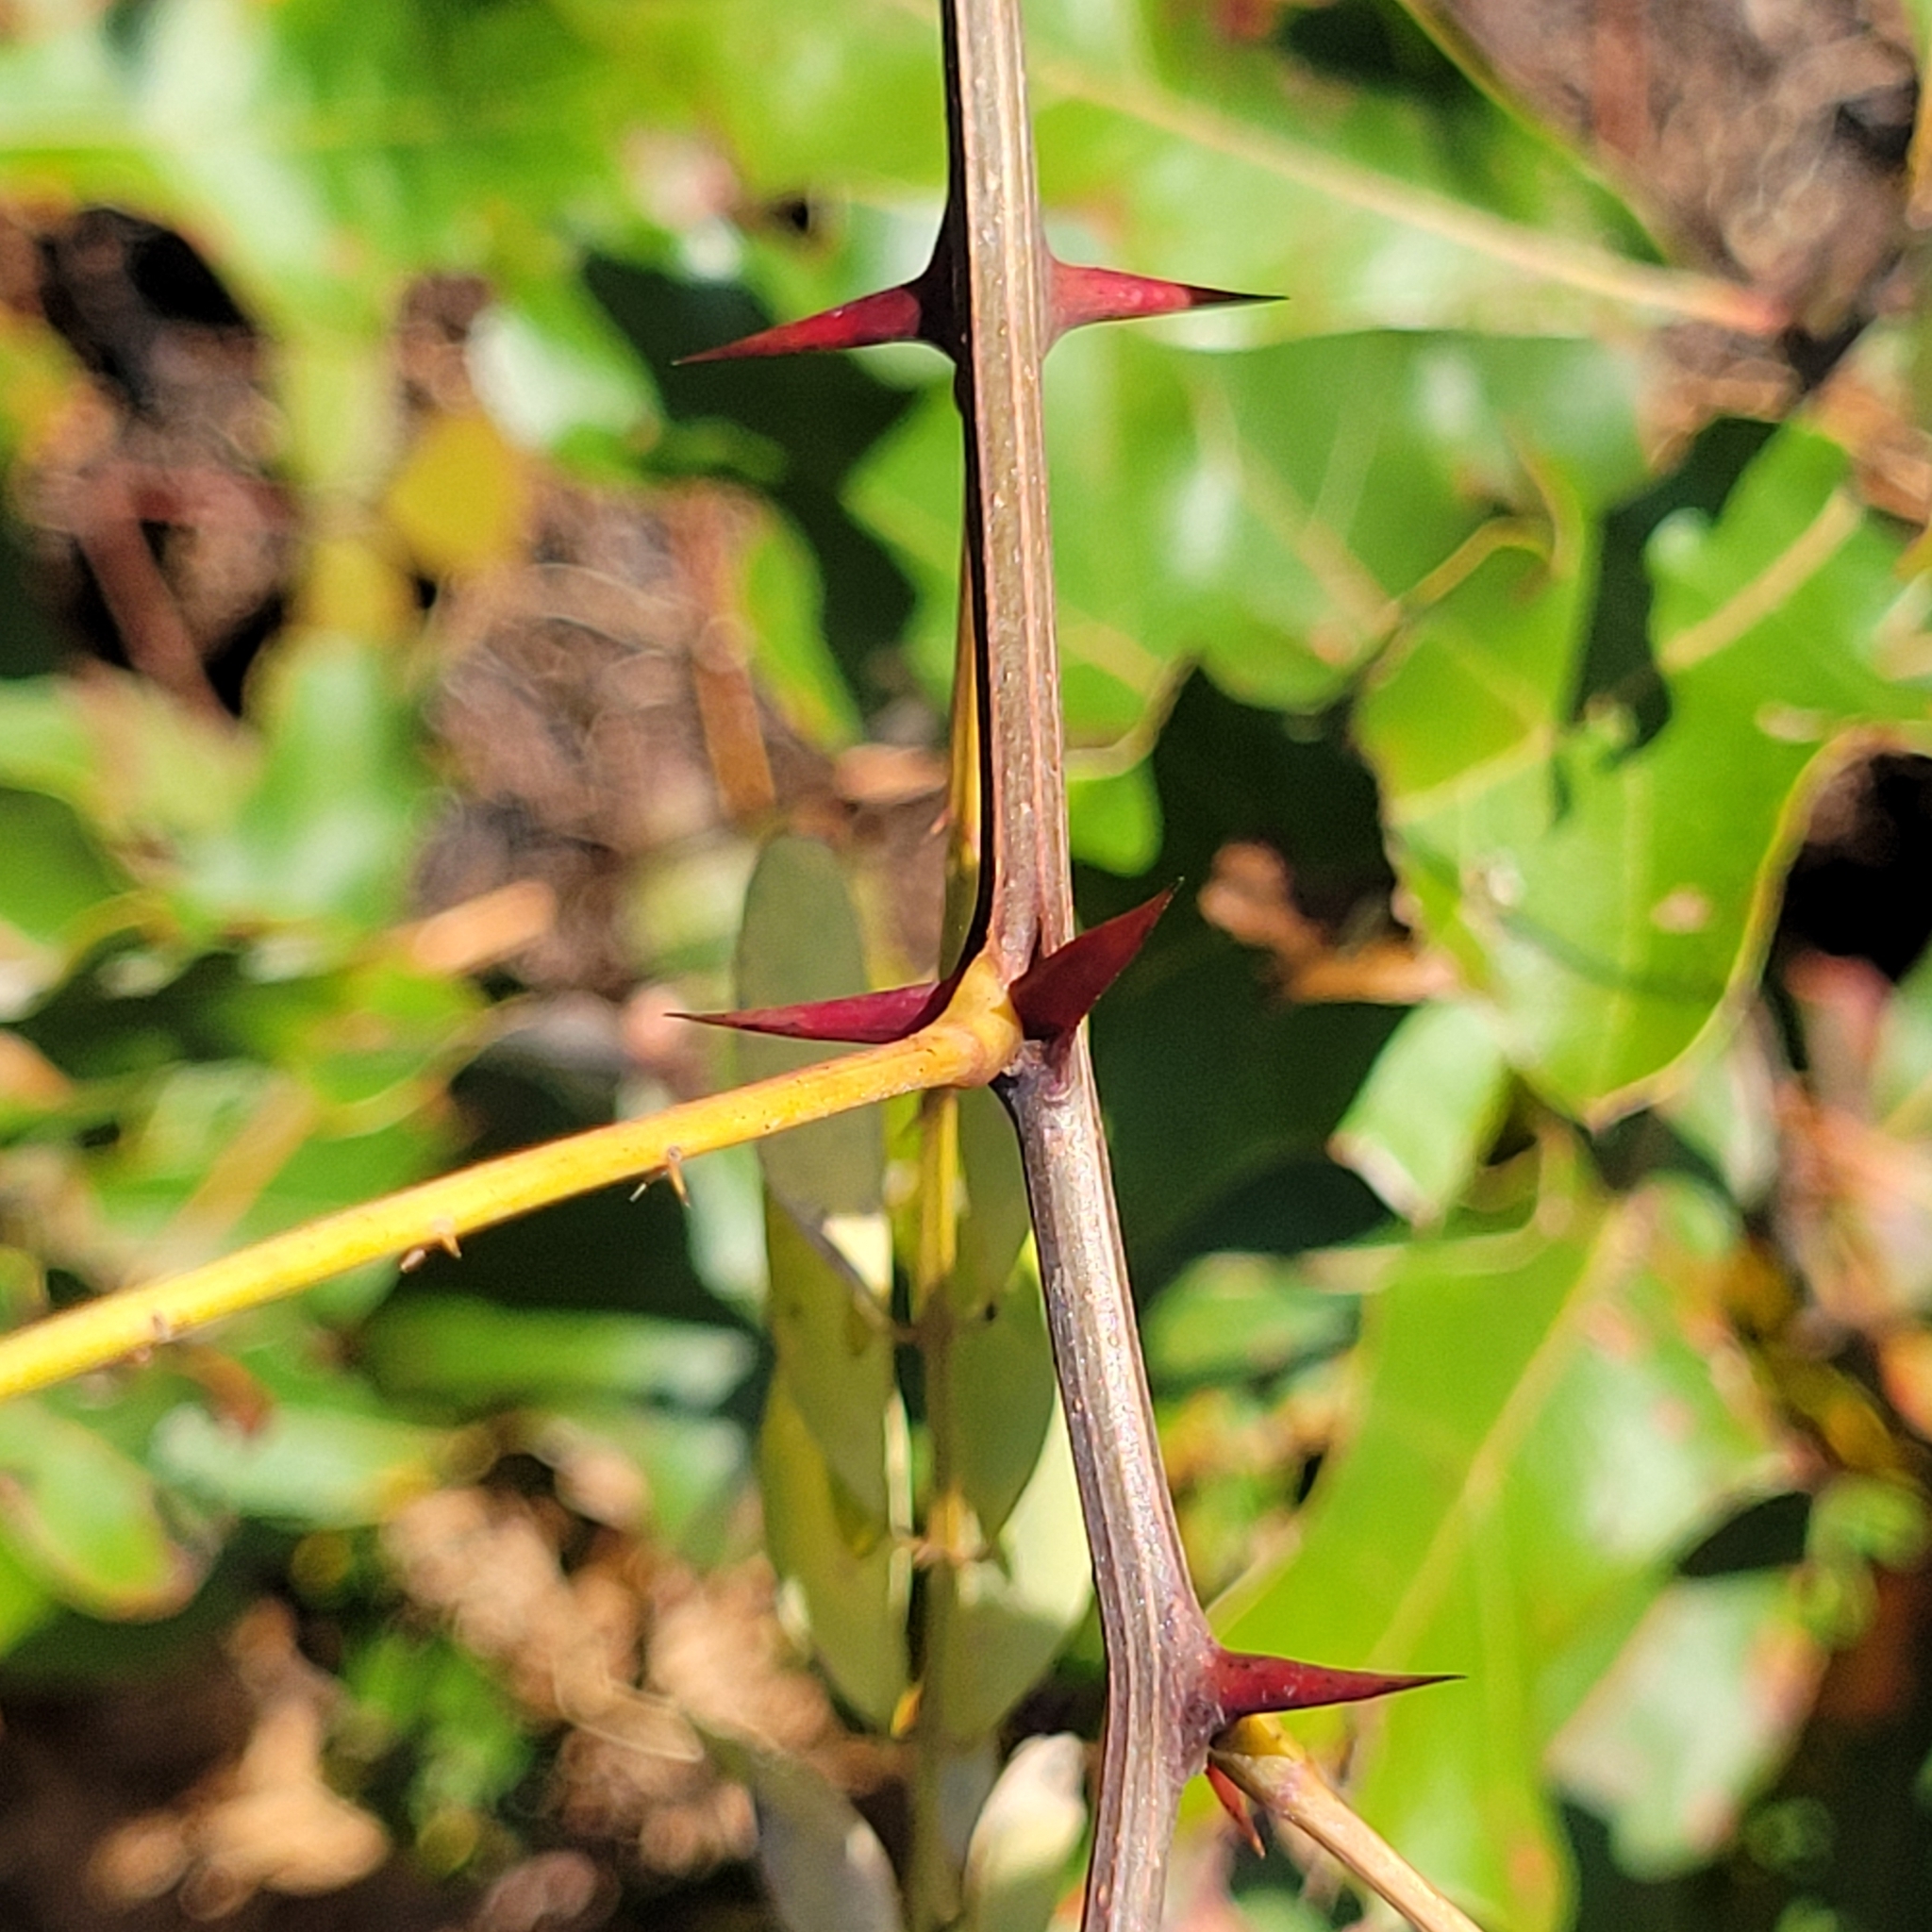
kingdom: Plantae
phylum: Tracheophyta
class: Magnoliopsida
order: Fabales
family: Fabaceae
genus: Robinia
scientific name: Robinia pseudoacacia
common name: Black locust
